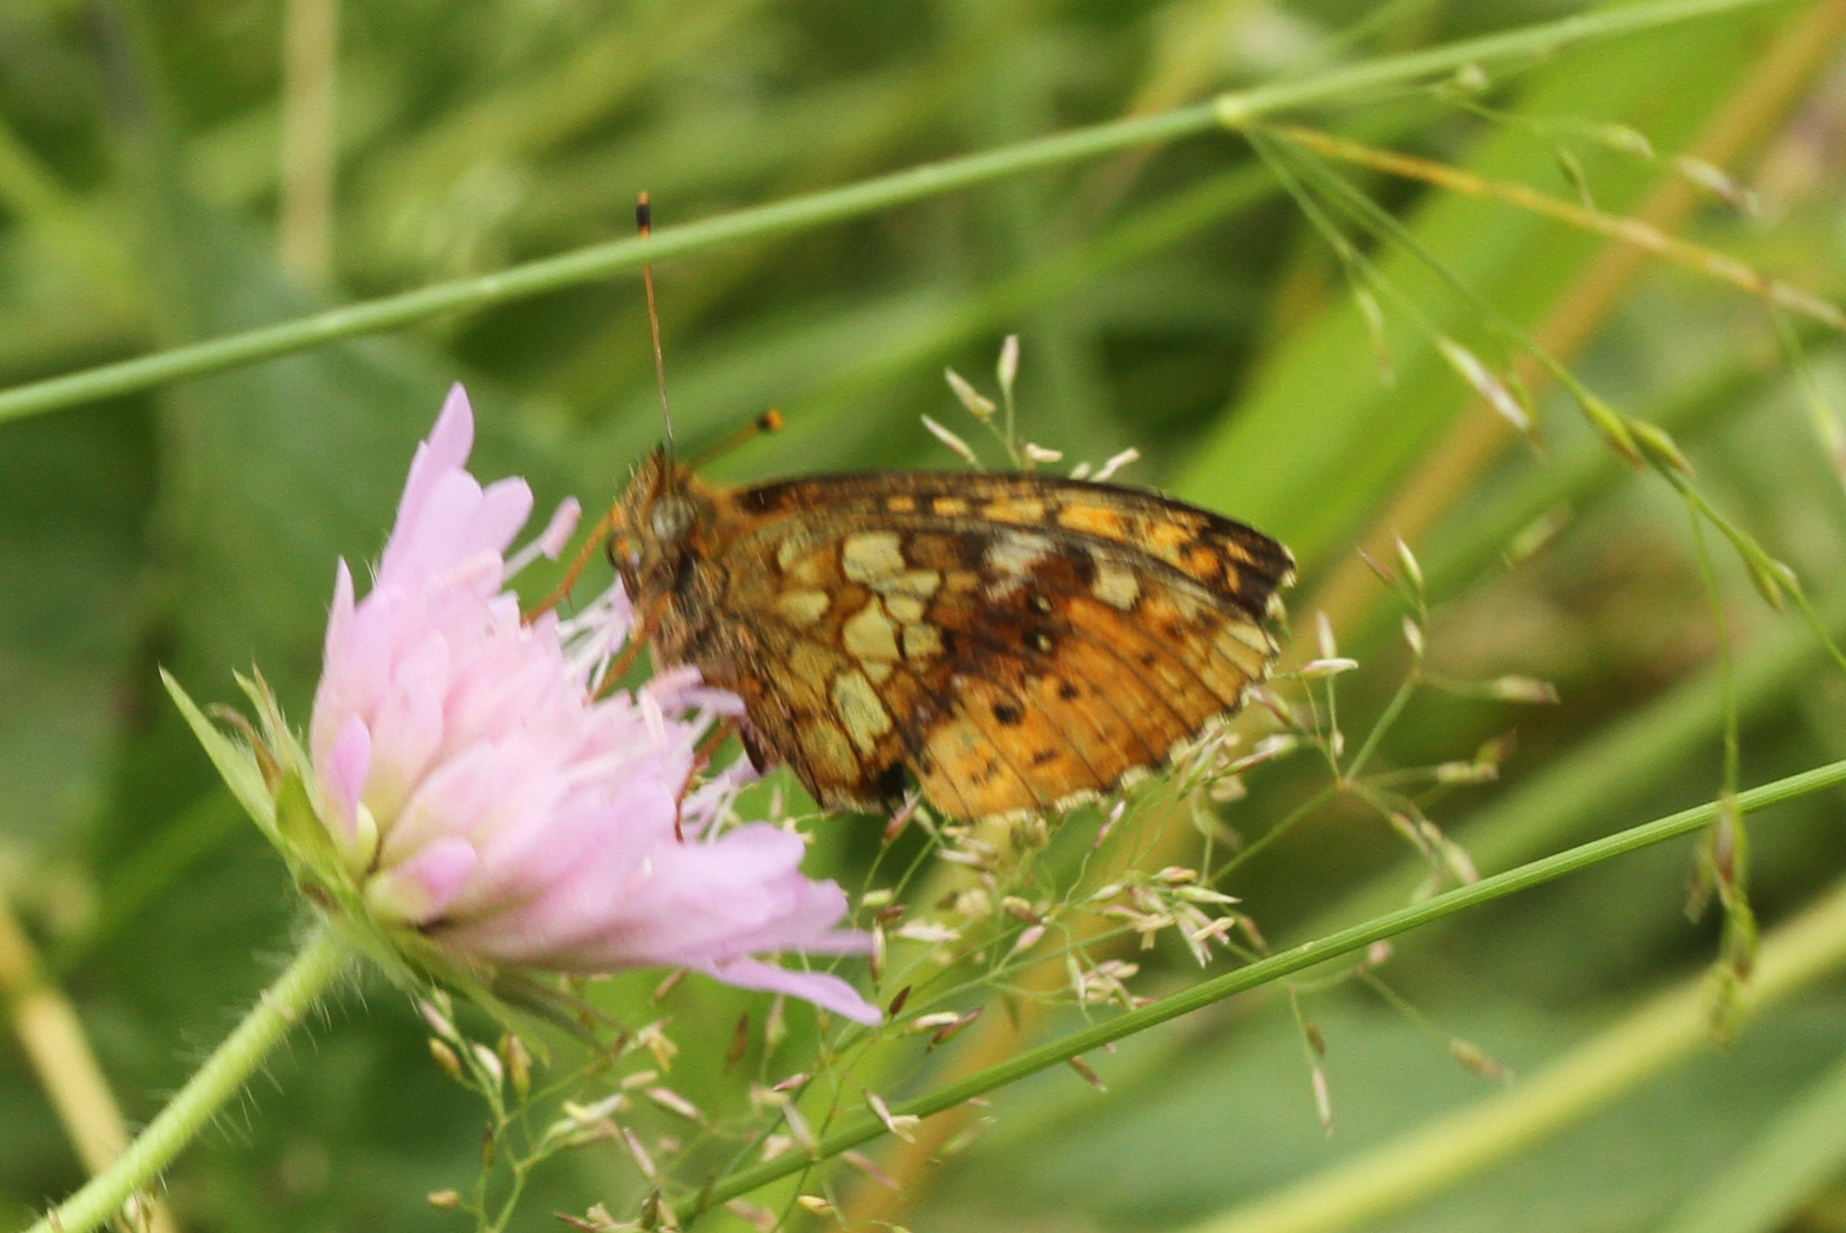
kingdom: Animalia
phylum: Arthropoda
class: Insecta
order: Lepidoptera
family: Nymphalidae
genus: Brenthis
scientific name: Brenthis ino
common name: Lesser marbled fritillary
